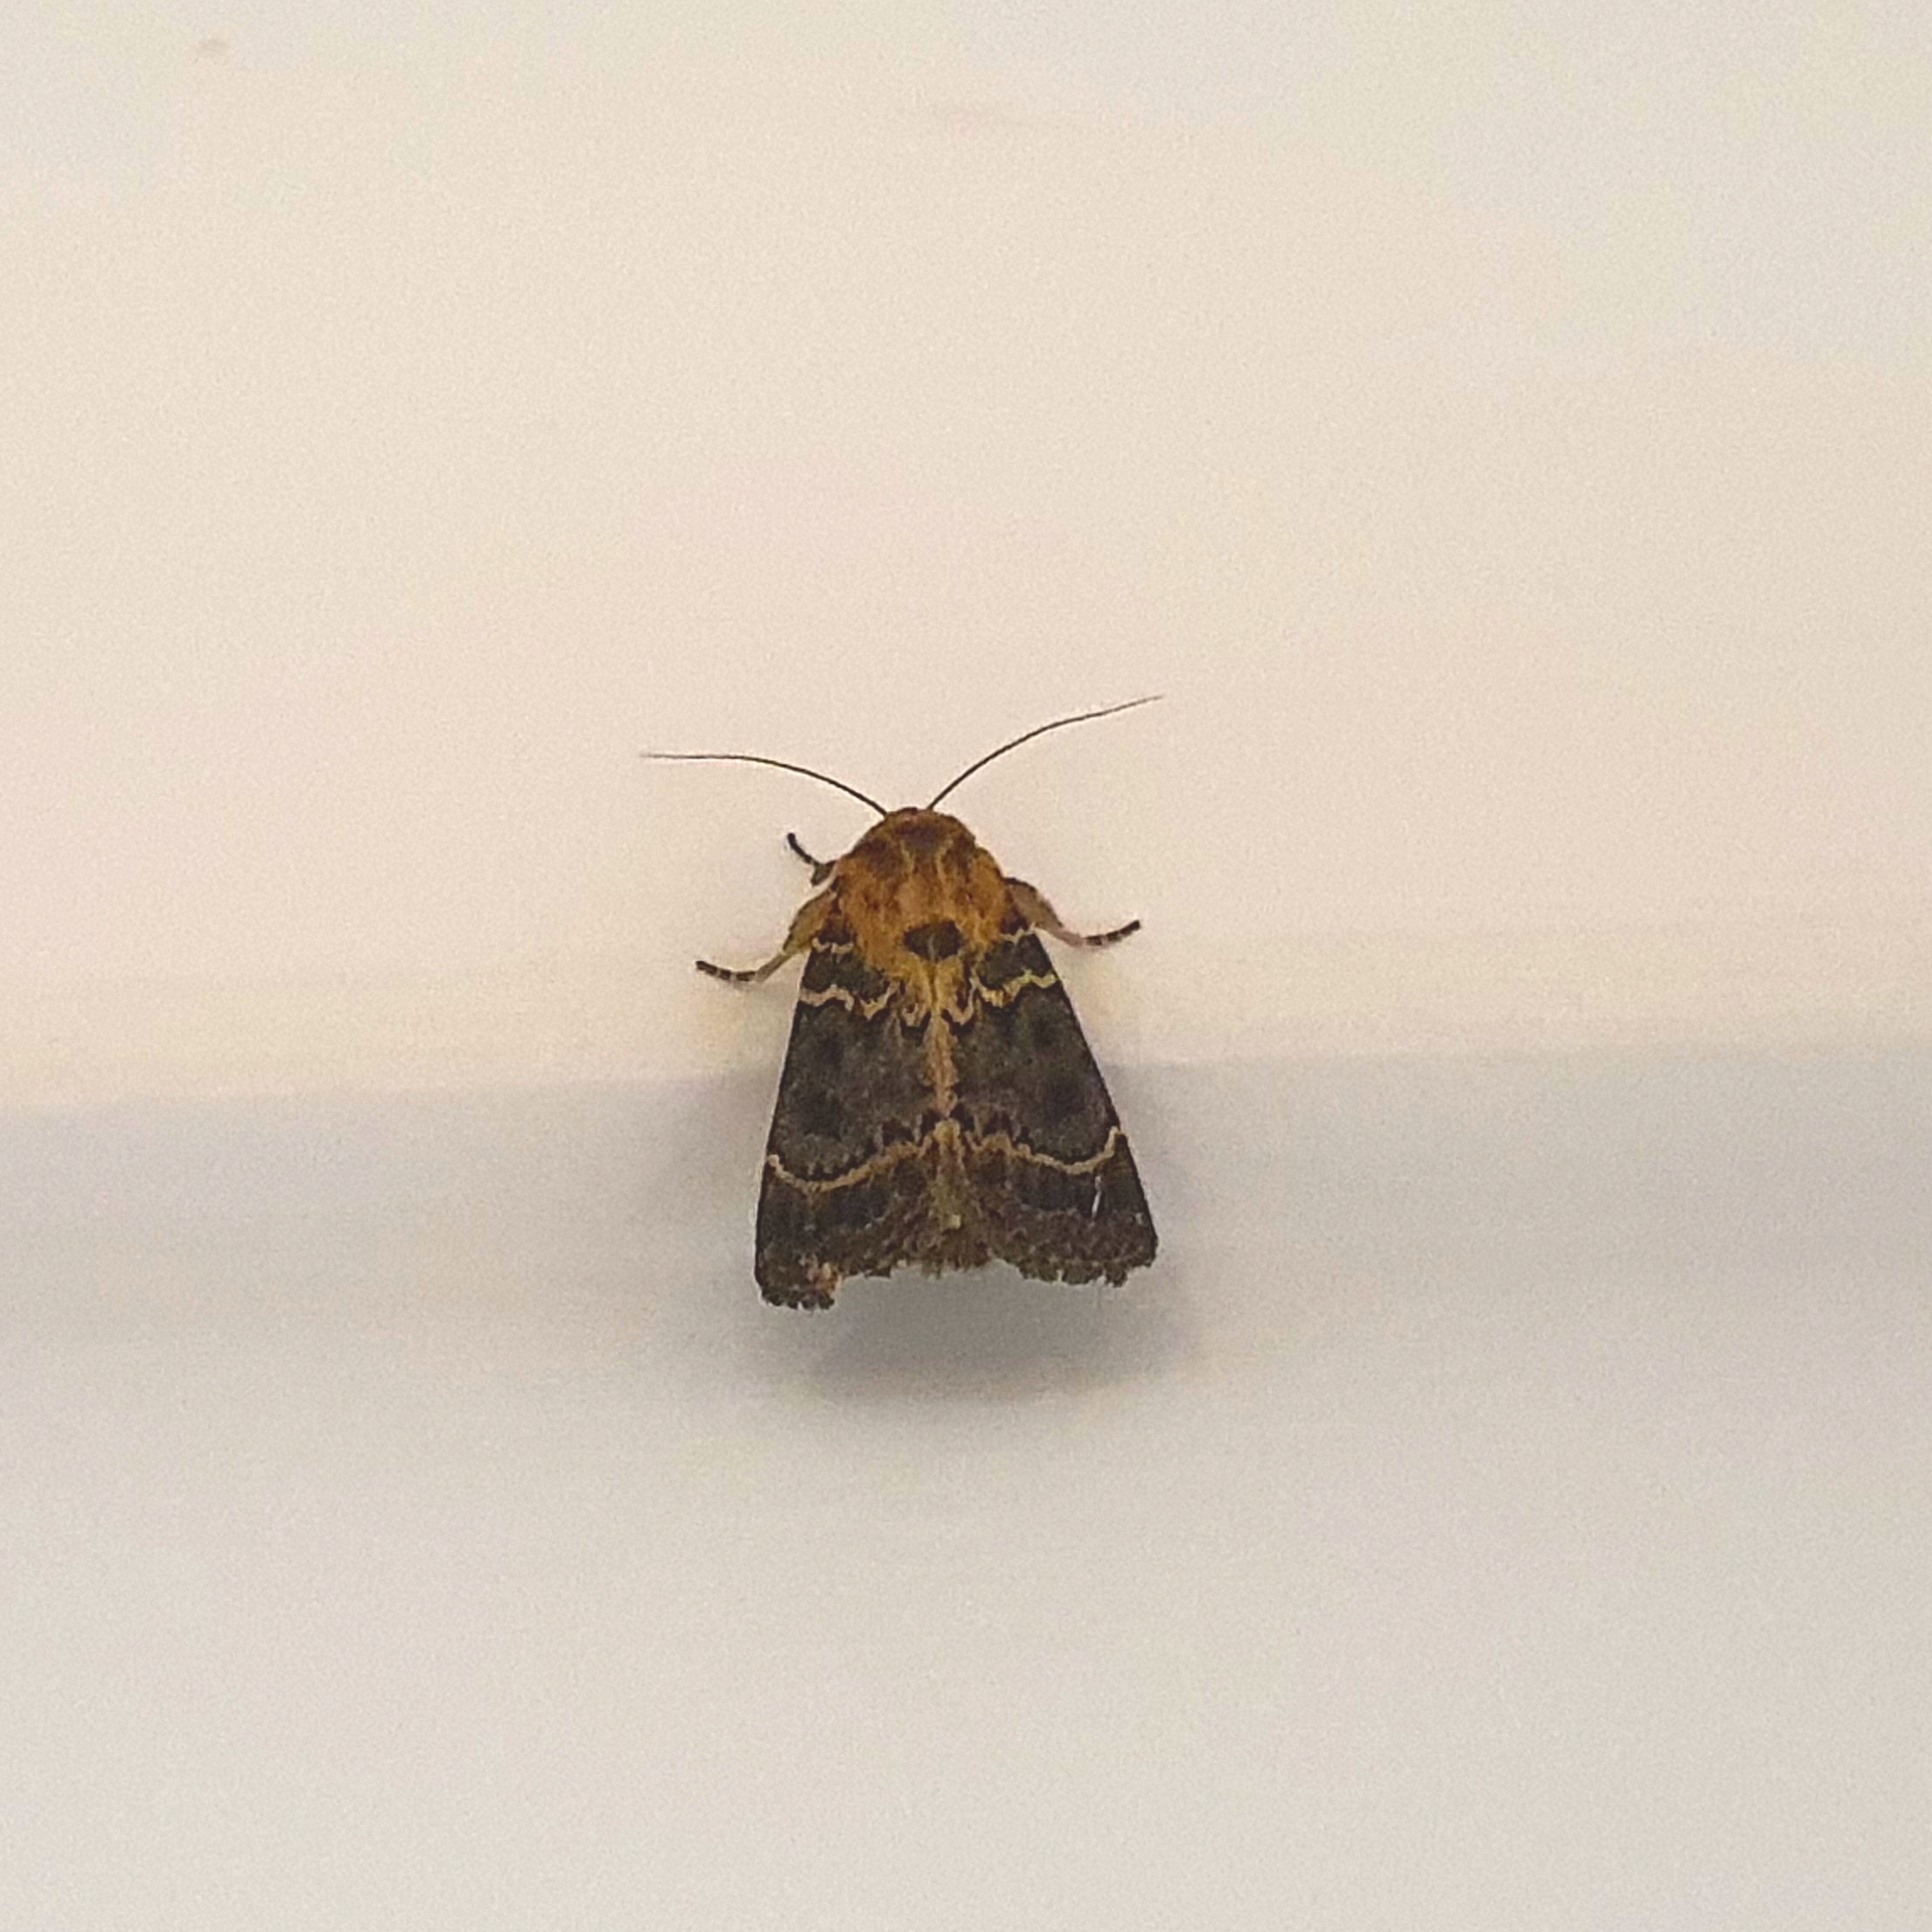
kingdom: Animalia
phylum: Arthropoda
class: Insecta
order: Lepidoptera
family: Noctuidae
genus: Proteuxoa
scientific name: Proteuxoa sanguinipuncta
